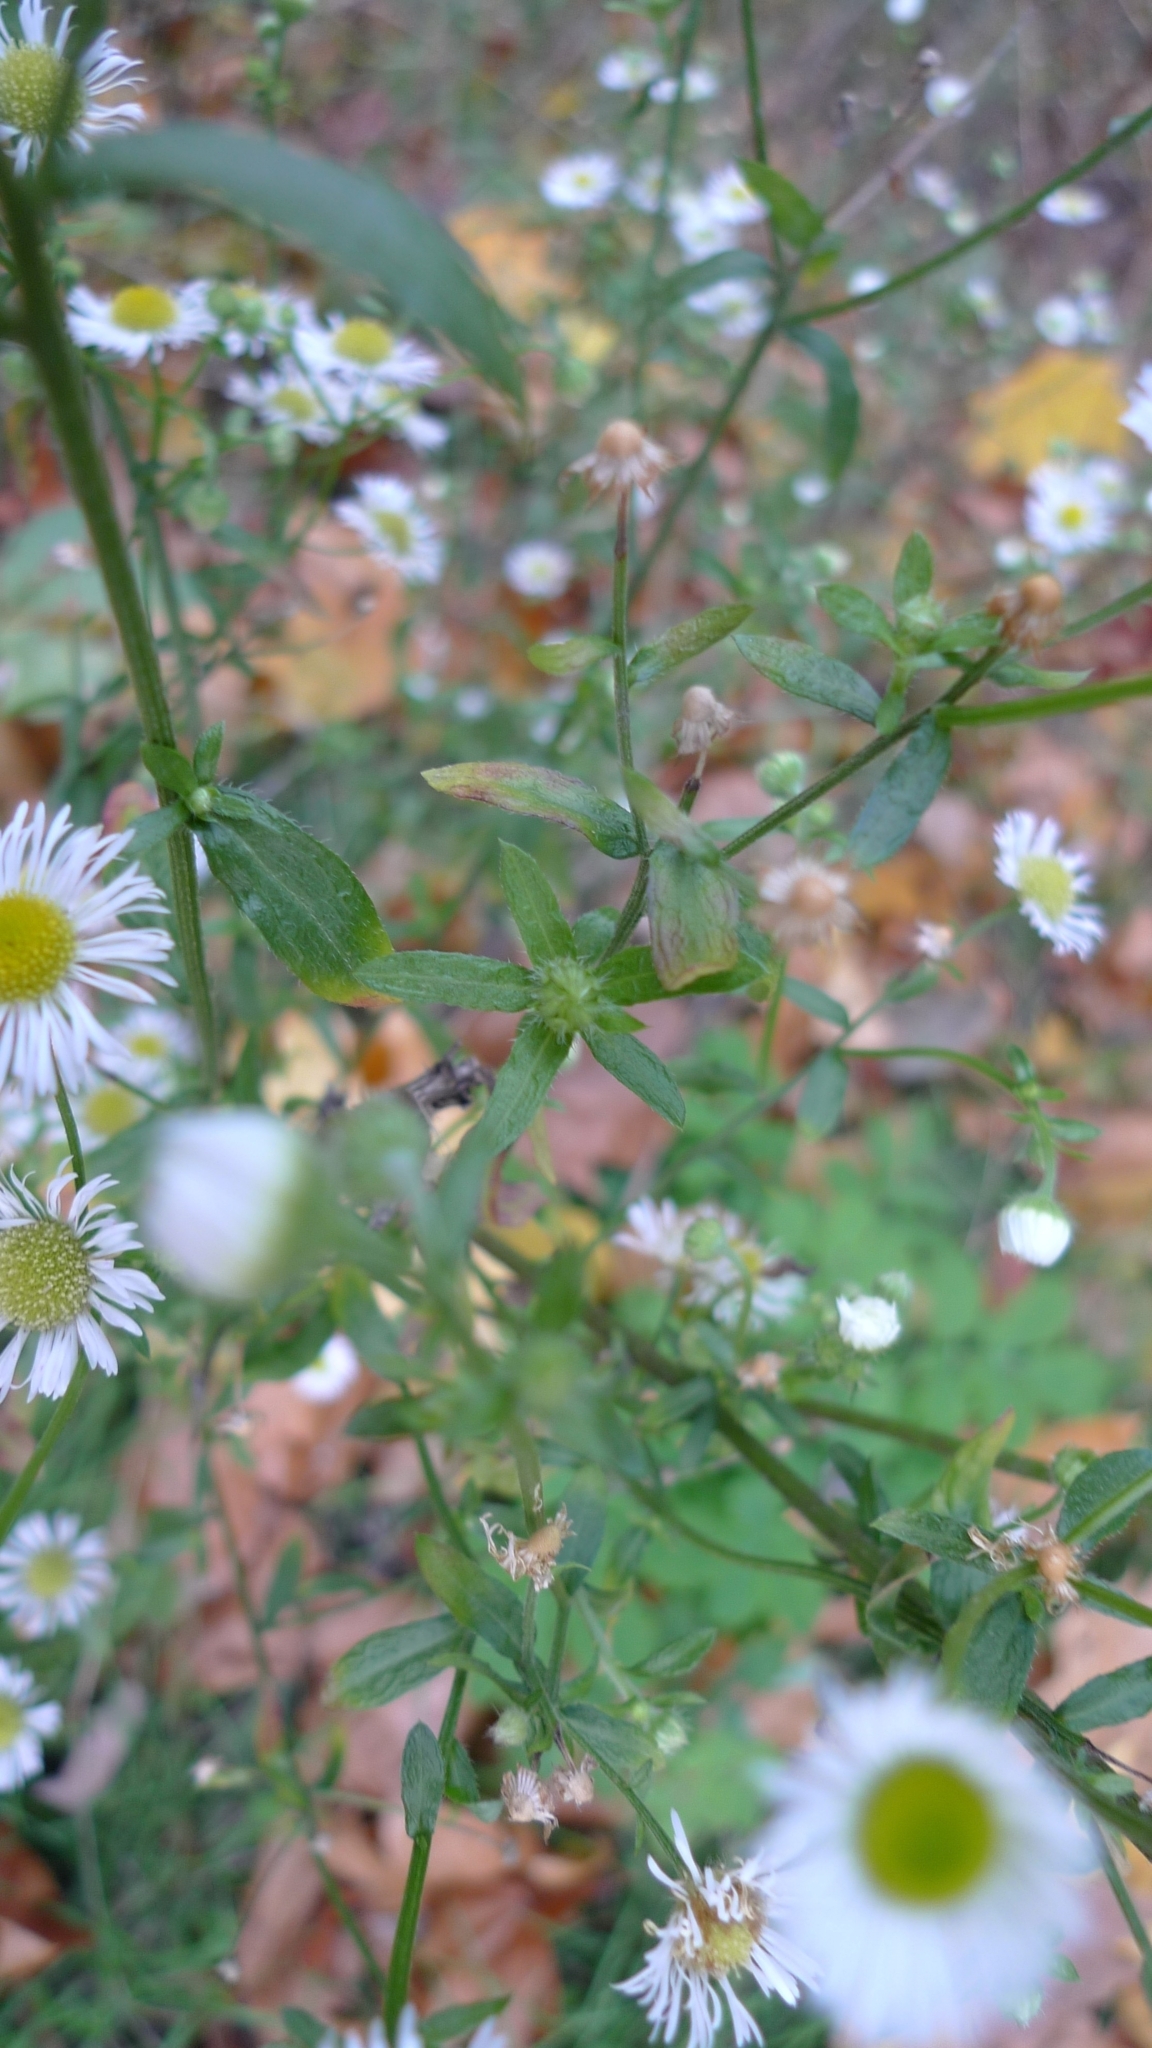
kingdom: Plantae
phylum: Tracheophyta
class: Magnoliopsida
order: Asterales
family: Asteraceae
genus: Erigeron
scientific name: Erigeron annuus
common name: Tall fleabane
